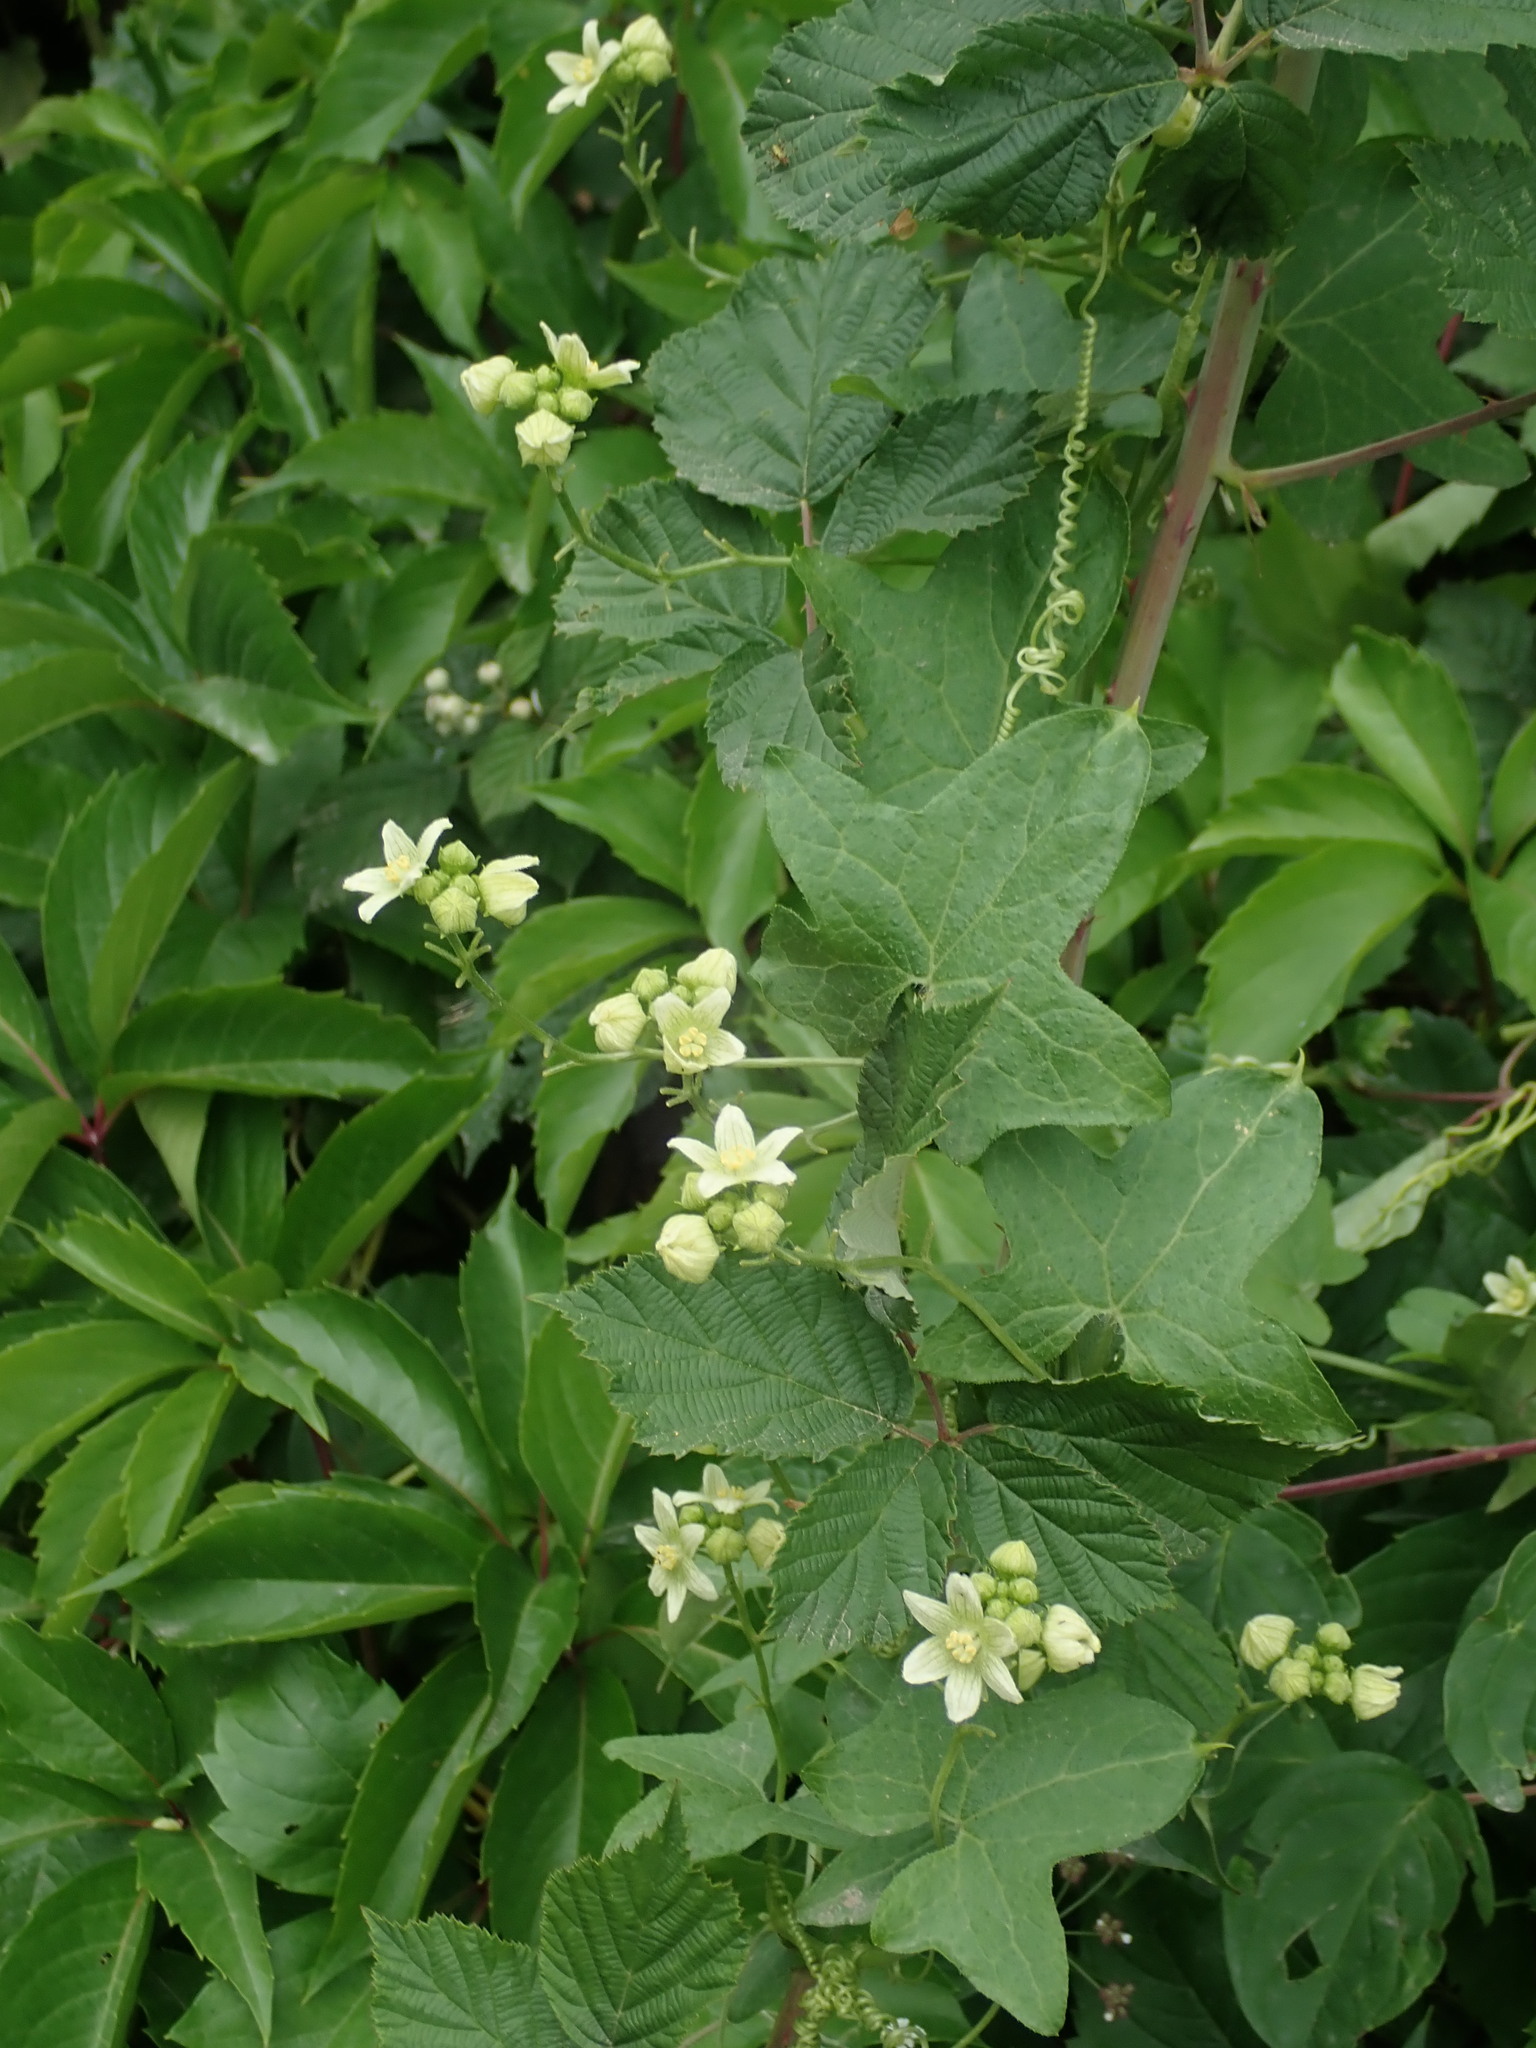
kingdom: Plantae
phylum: Tracheophyta
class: Magnoliopsida
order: Cucurbitales
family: Cucurbitaceae
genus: Bryonia
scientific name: Bryonia dioica
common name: White bryony
